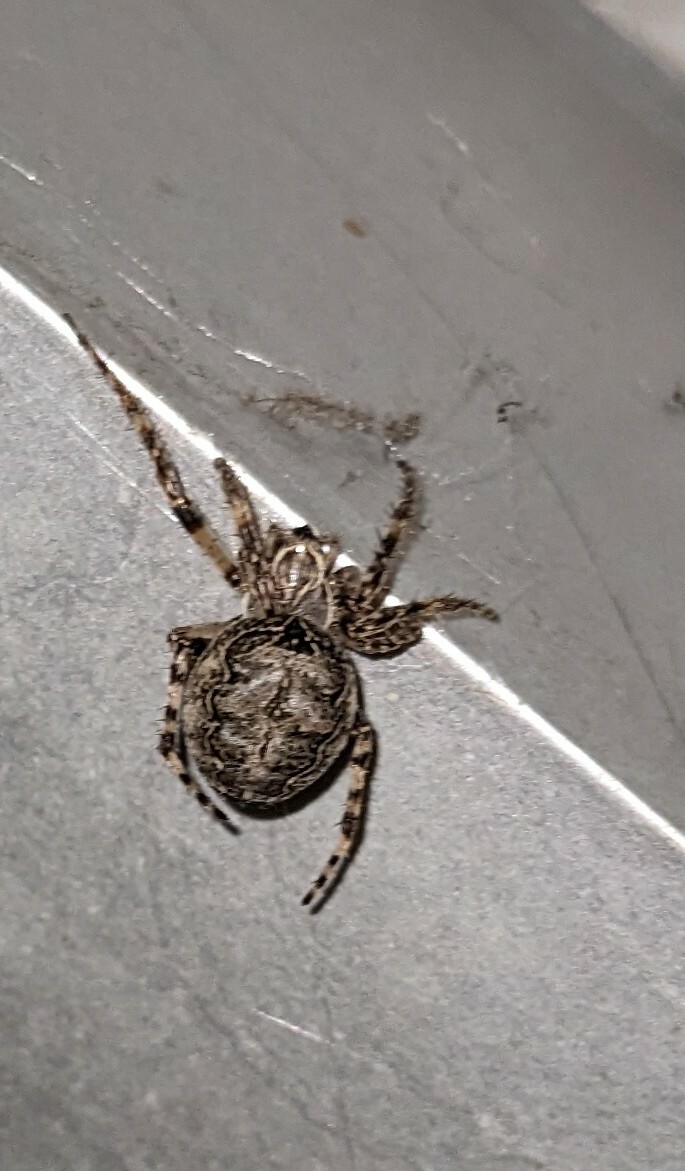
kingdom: Animalia
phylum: Arthropoda
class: Arachnida
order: Araneae
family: Araneidae
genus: Larinioides
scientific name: Larinioides sclopetarius
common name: Bridge orbweaver
